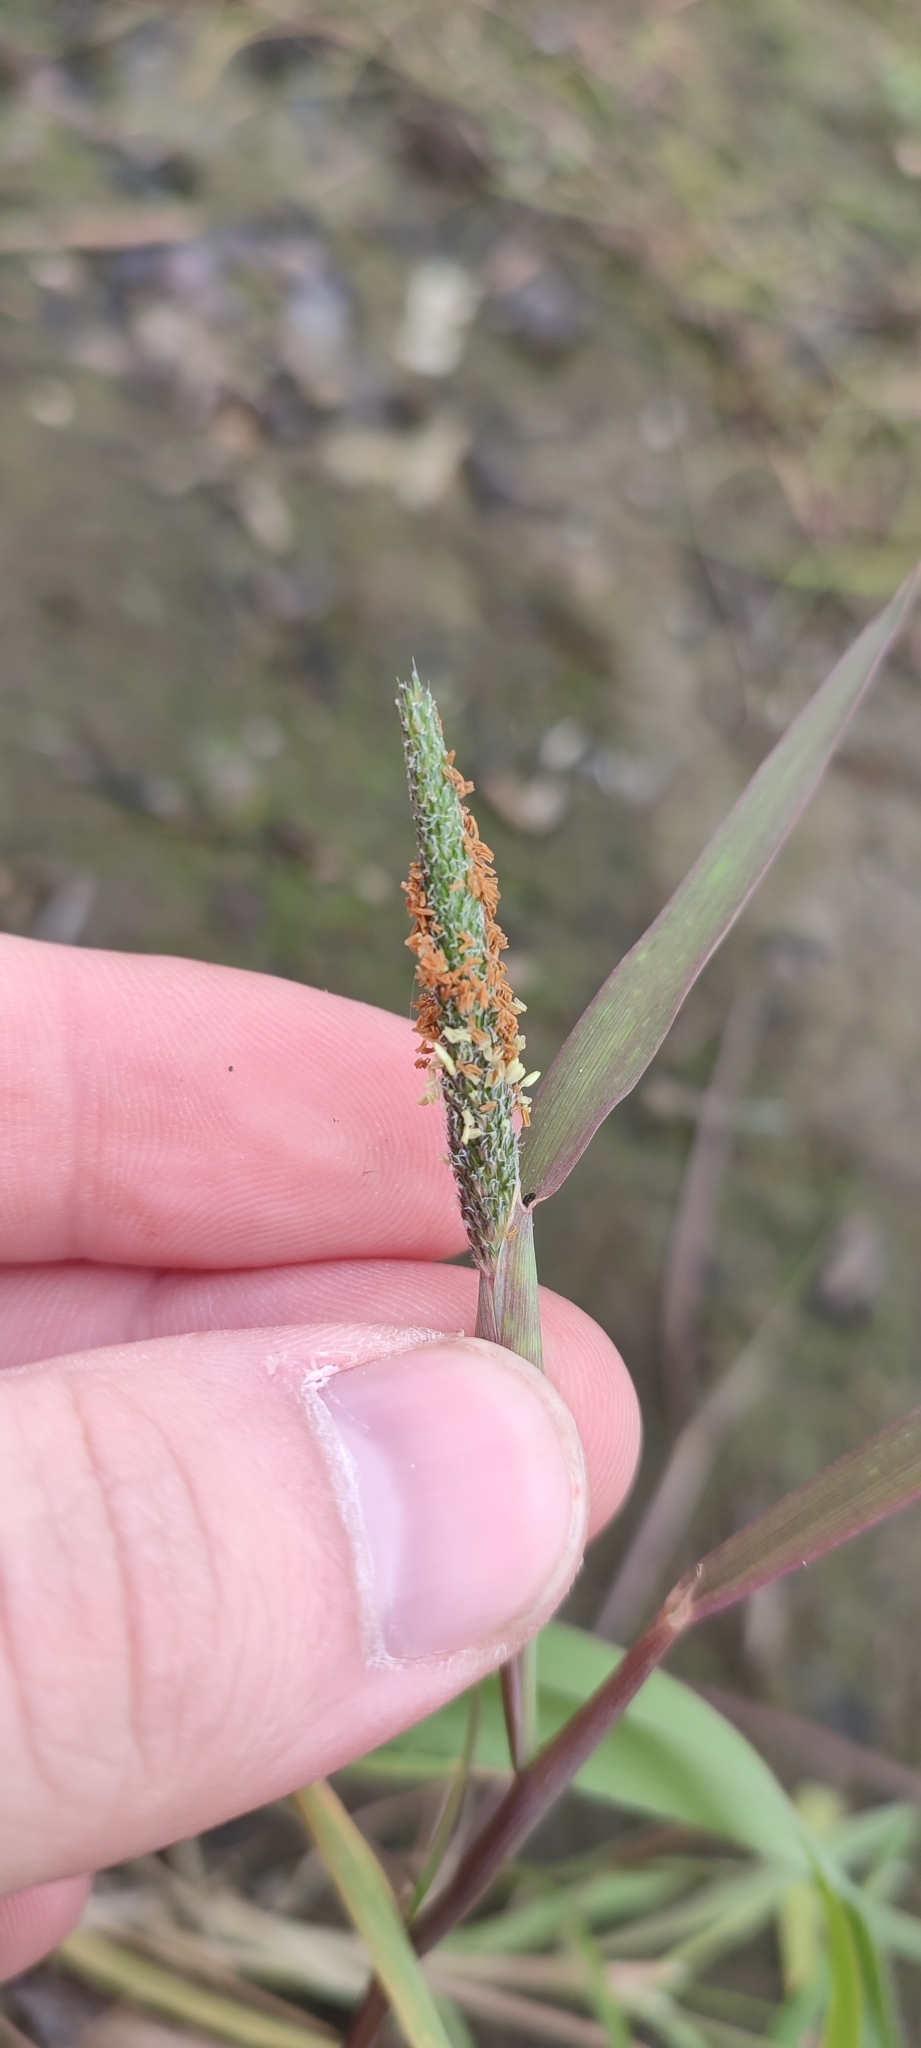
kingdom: Plantae
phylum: Tracheophyta
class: Liliopsida
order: Poales
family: Poaceae
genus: Alopecurus
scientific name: Alopecurus aequalis
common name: Orange foxtail
